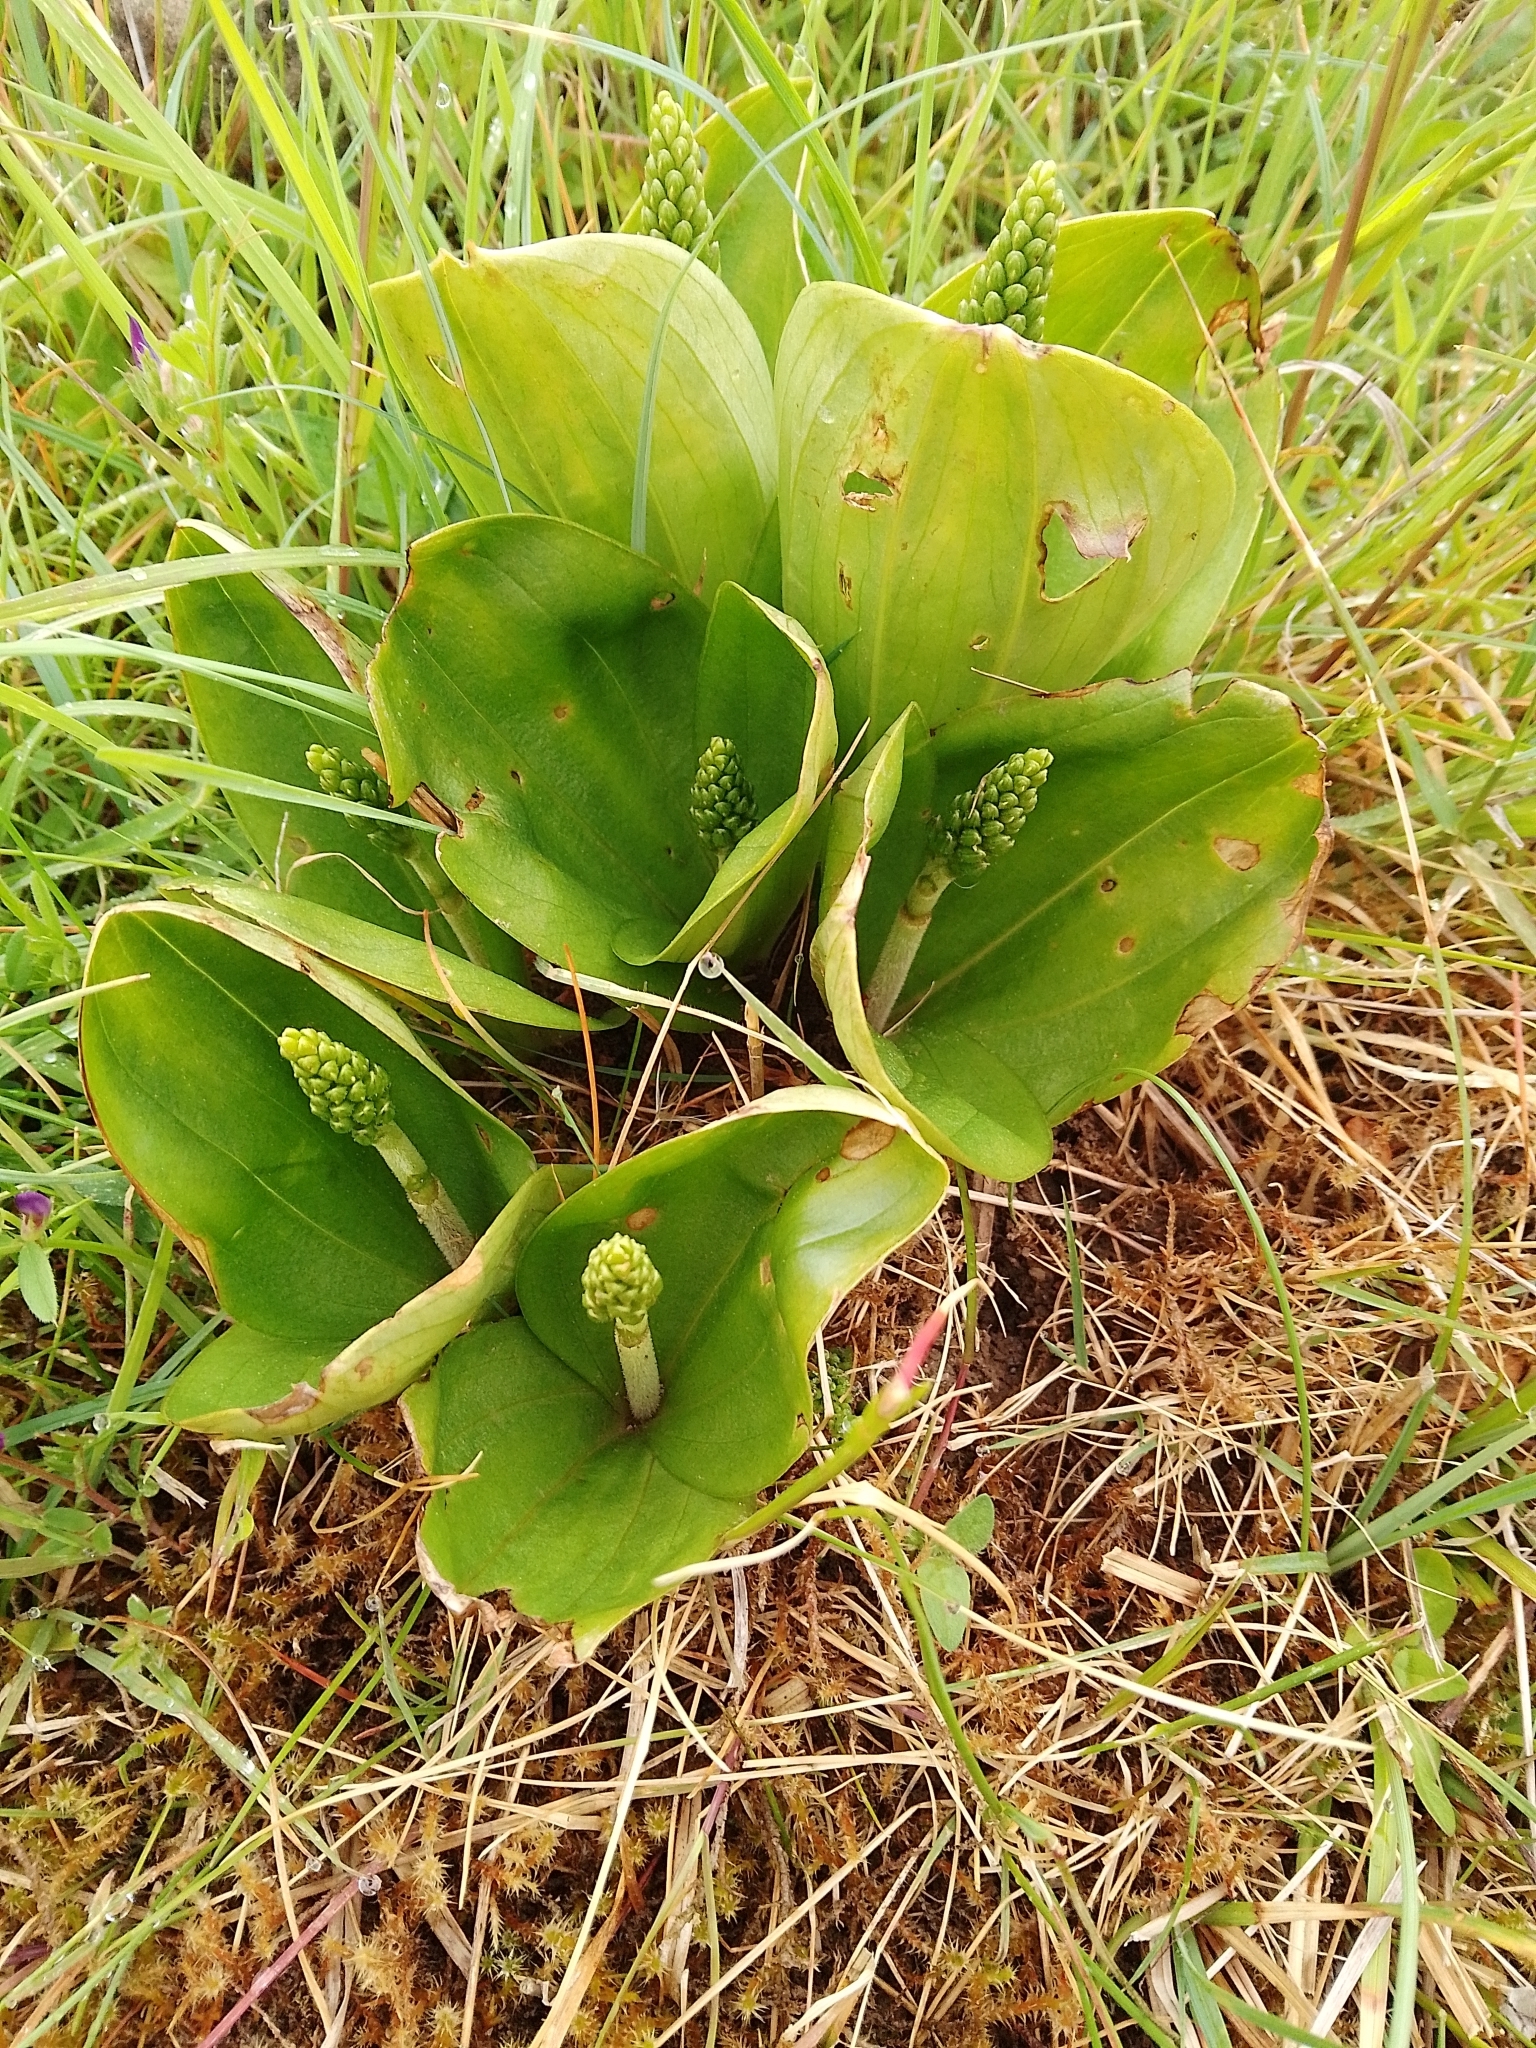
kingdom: Plantae
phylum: Tracheophyta
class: Liliopsida
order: Asparagales
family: Orchidaceae
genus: Neottia
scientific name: Neottia ovata
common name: Common twayblade
